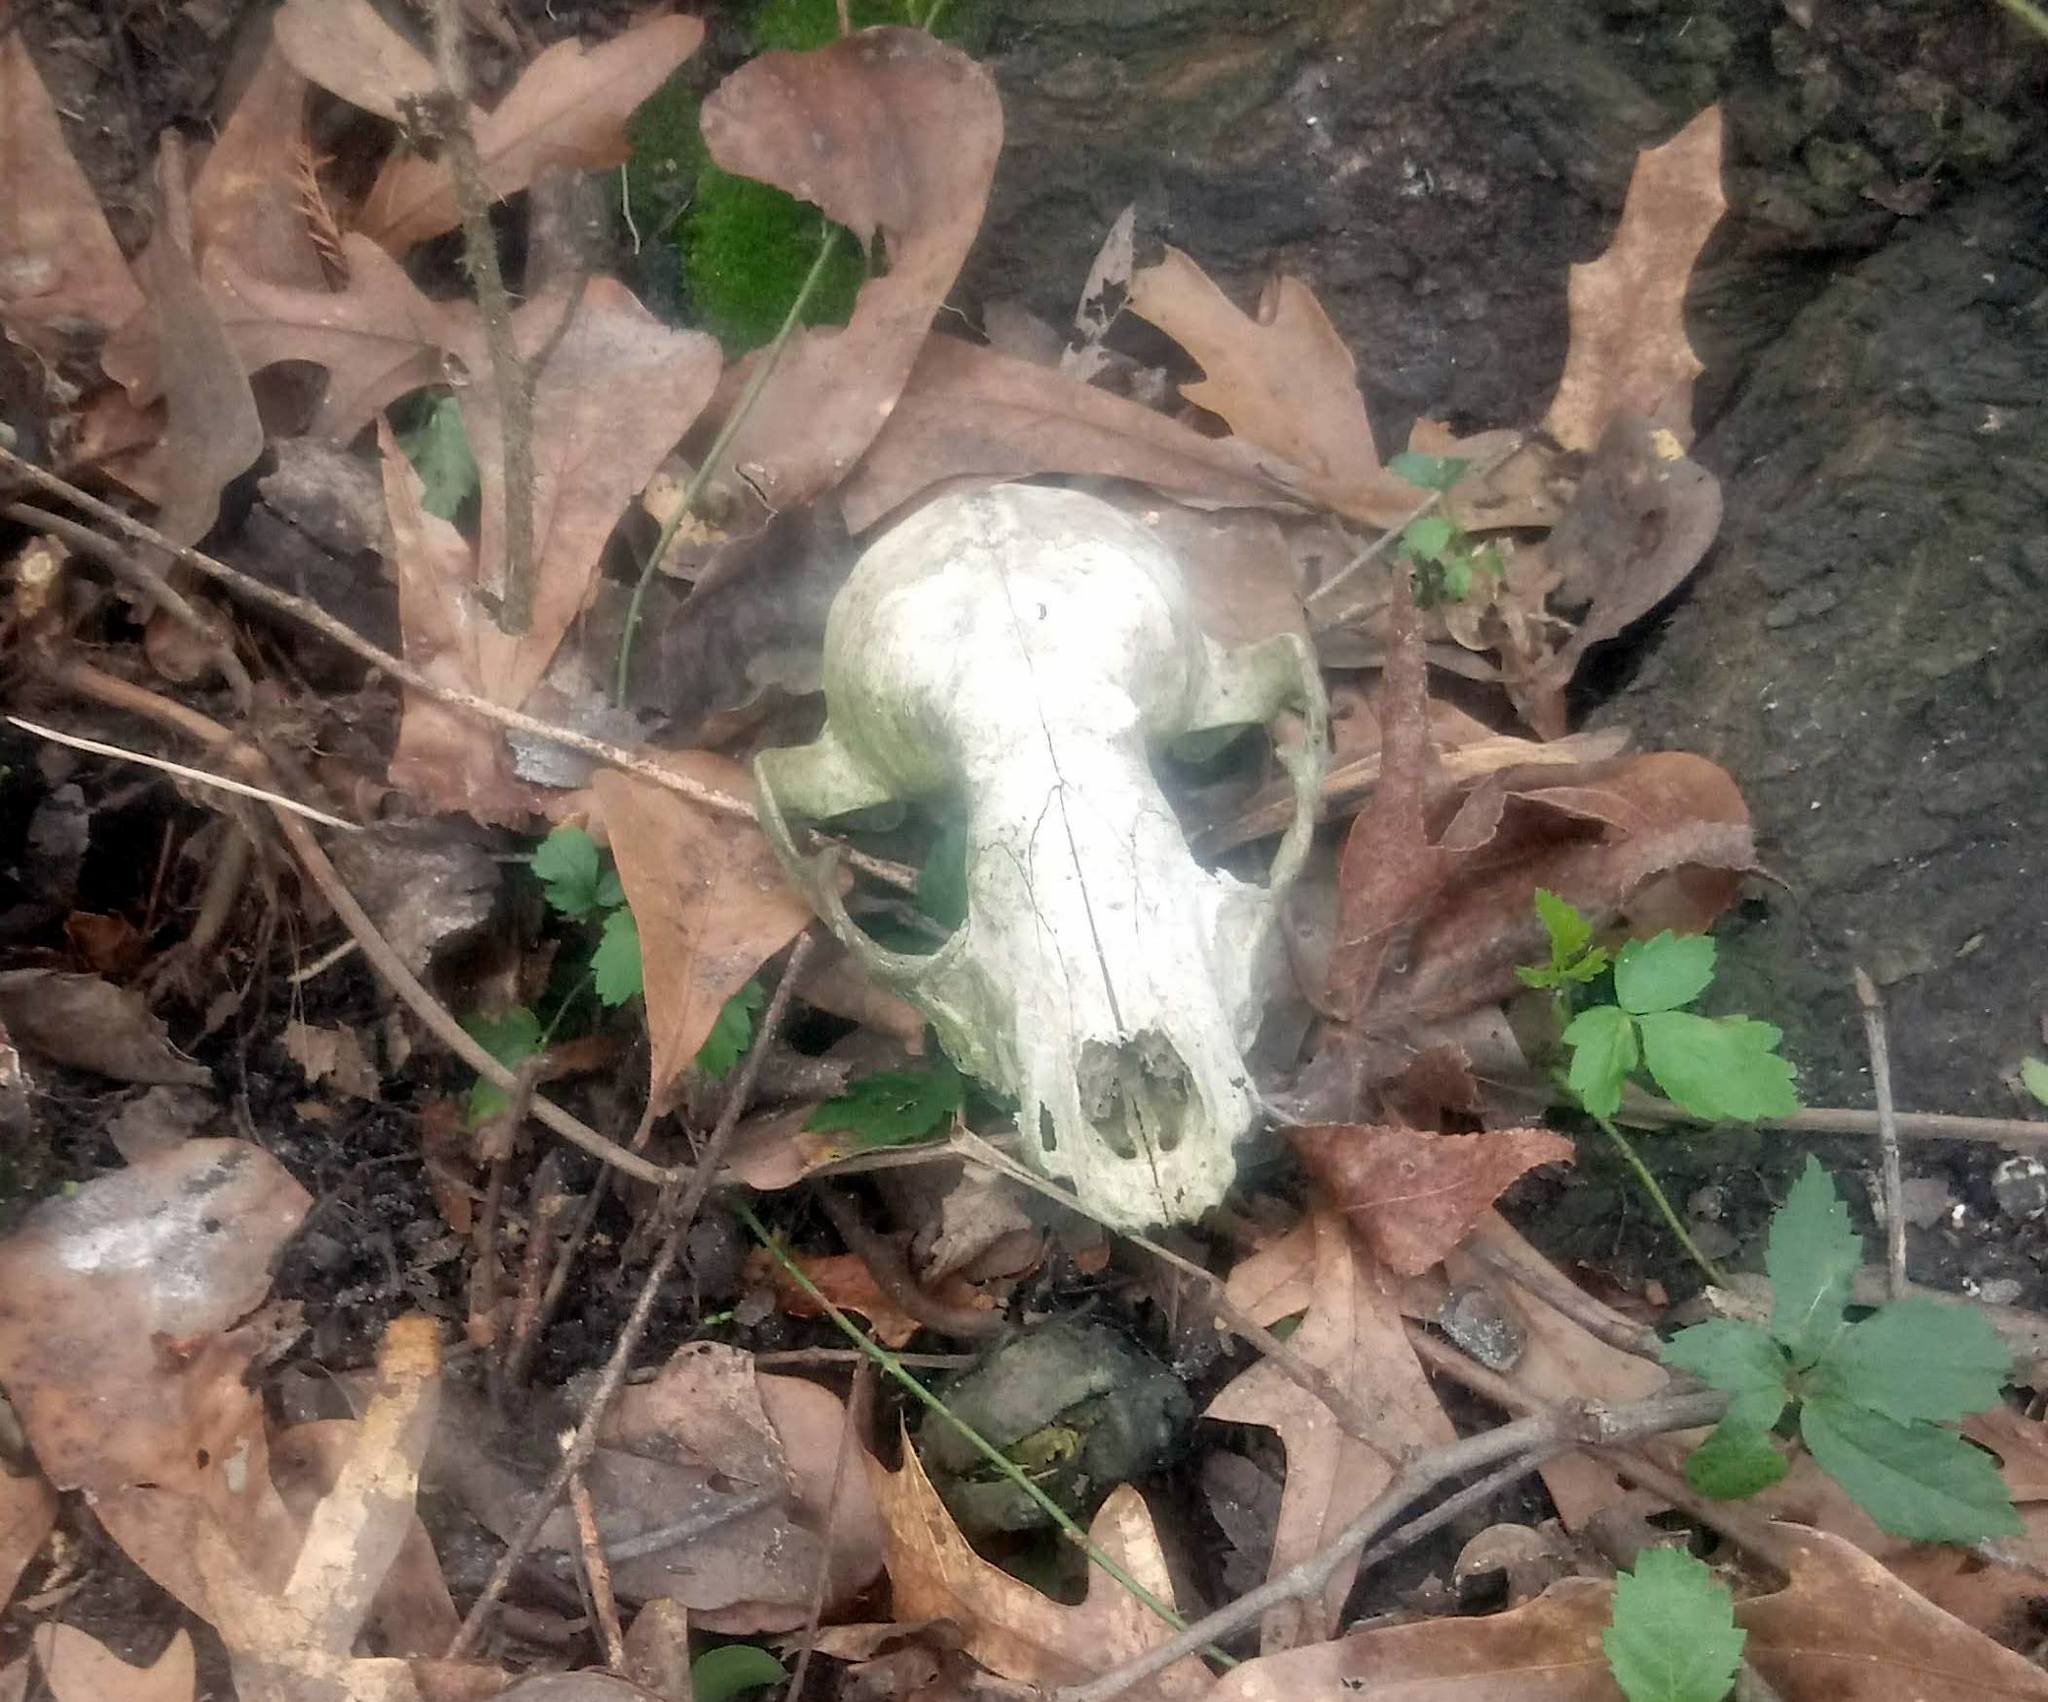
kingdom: Animalia
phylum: Chordata
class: Mammalia
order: Carnivora
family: Procyonidae
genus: Procyon
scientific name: Procyon lotor
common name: Raccoon
